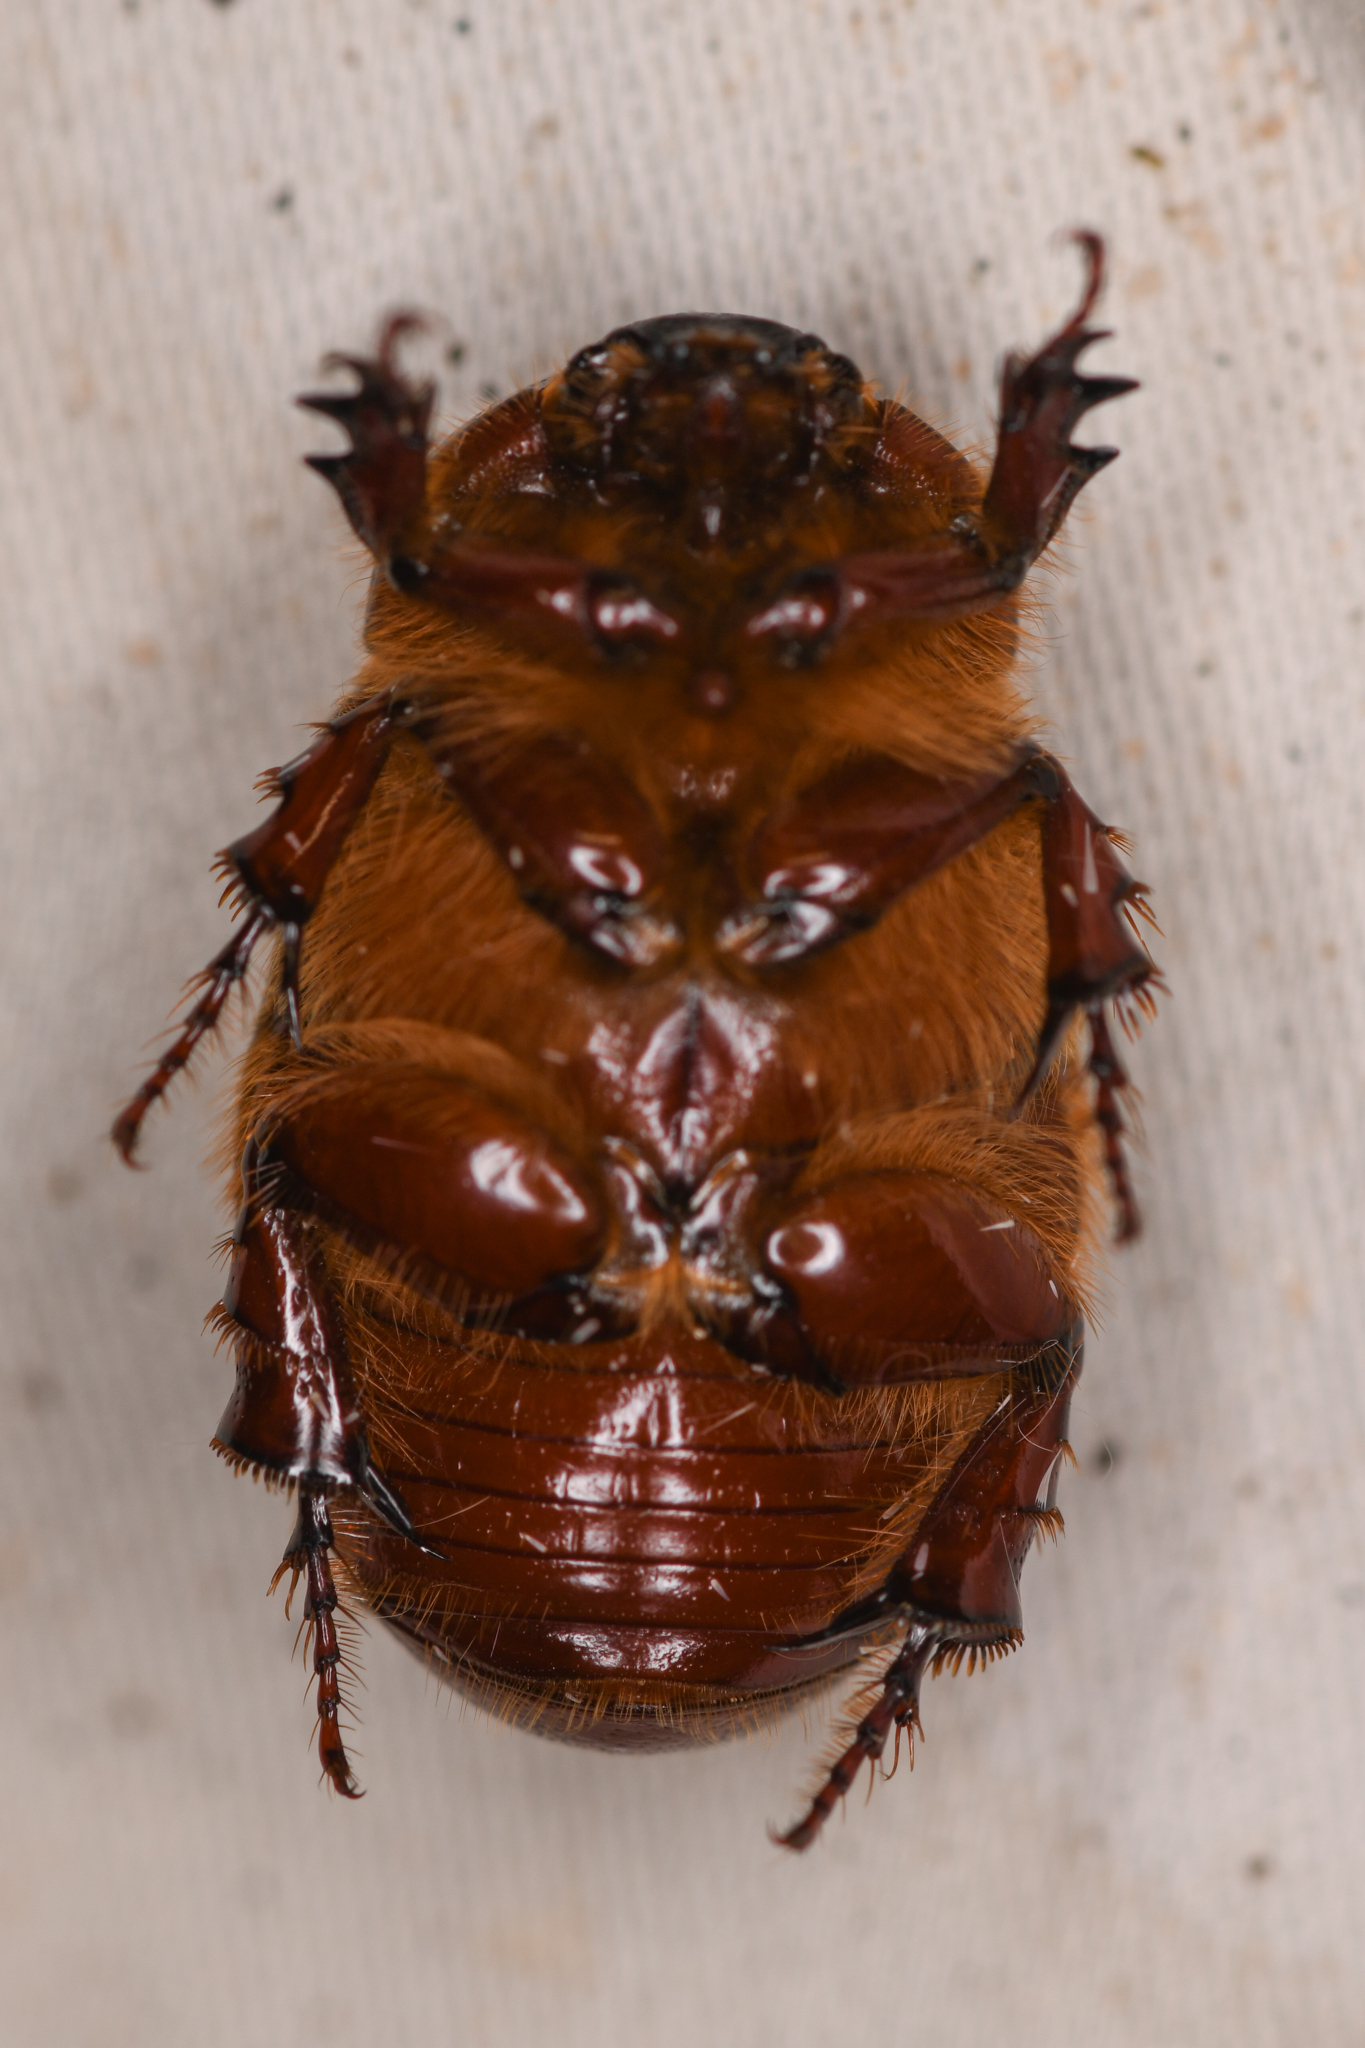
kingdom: Animalia
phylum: Arthropoda
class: Insecta
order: Coleoptera
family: Scarabaeidae
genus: Ligyrus
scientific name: Ligyrus gibbosus
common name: Carrot beetle
